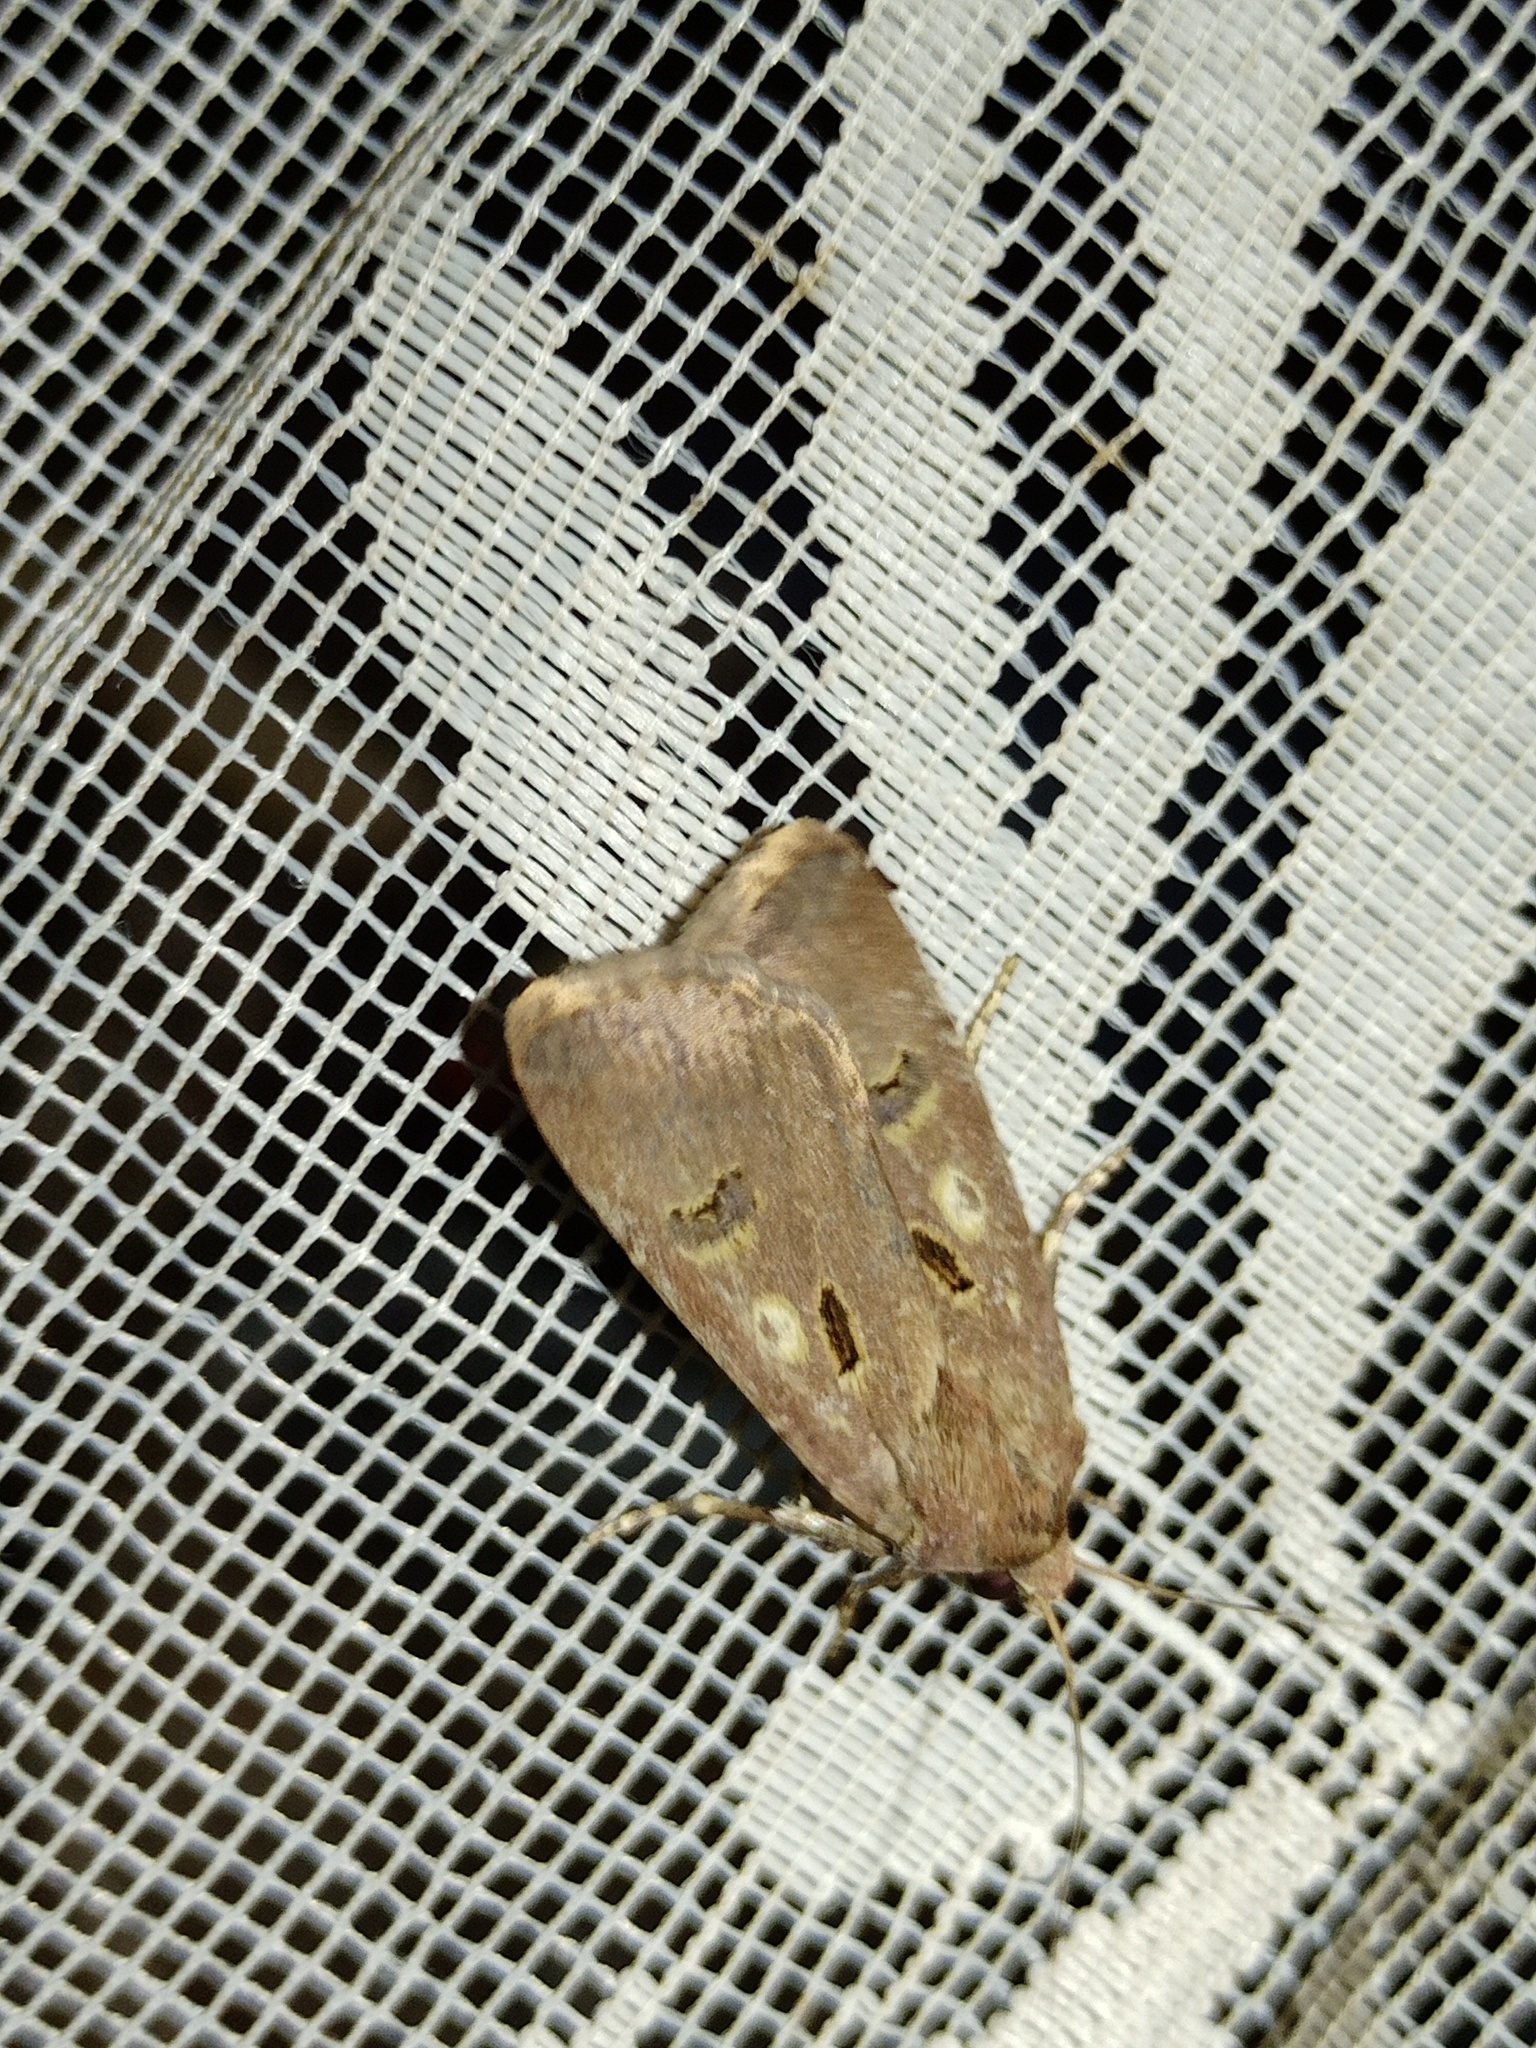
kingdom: Animalia
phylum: Arthropoda
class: Insecta
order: Lepidoptera
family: Noctuidae
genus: Agrotis
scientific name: Agrotis trux
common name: Crescent dart
